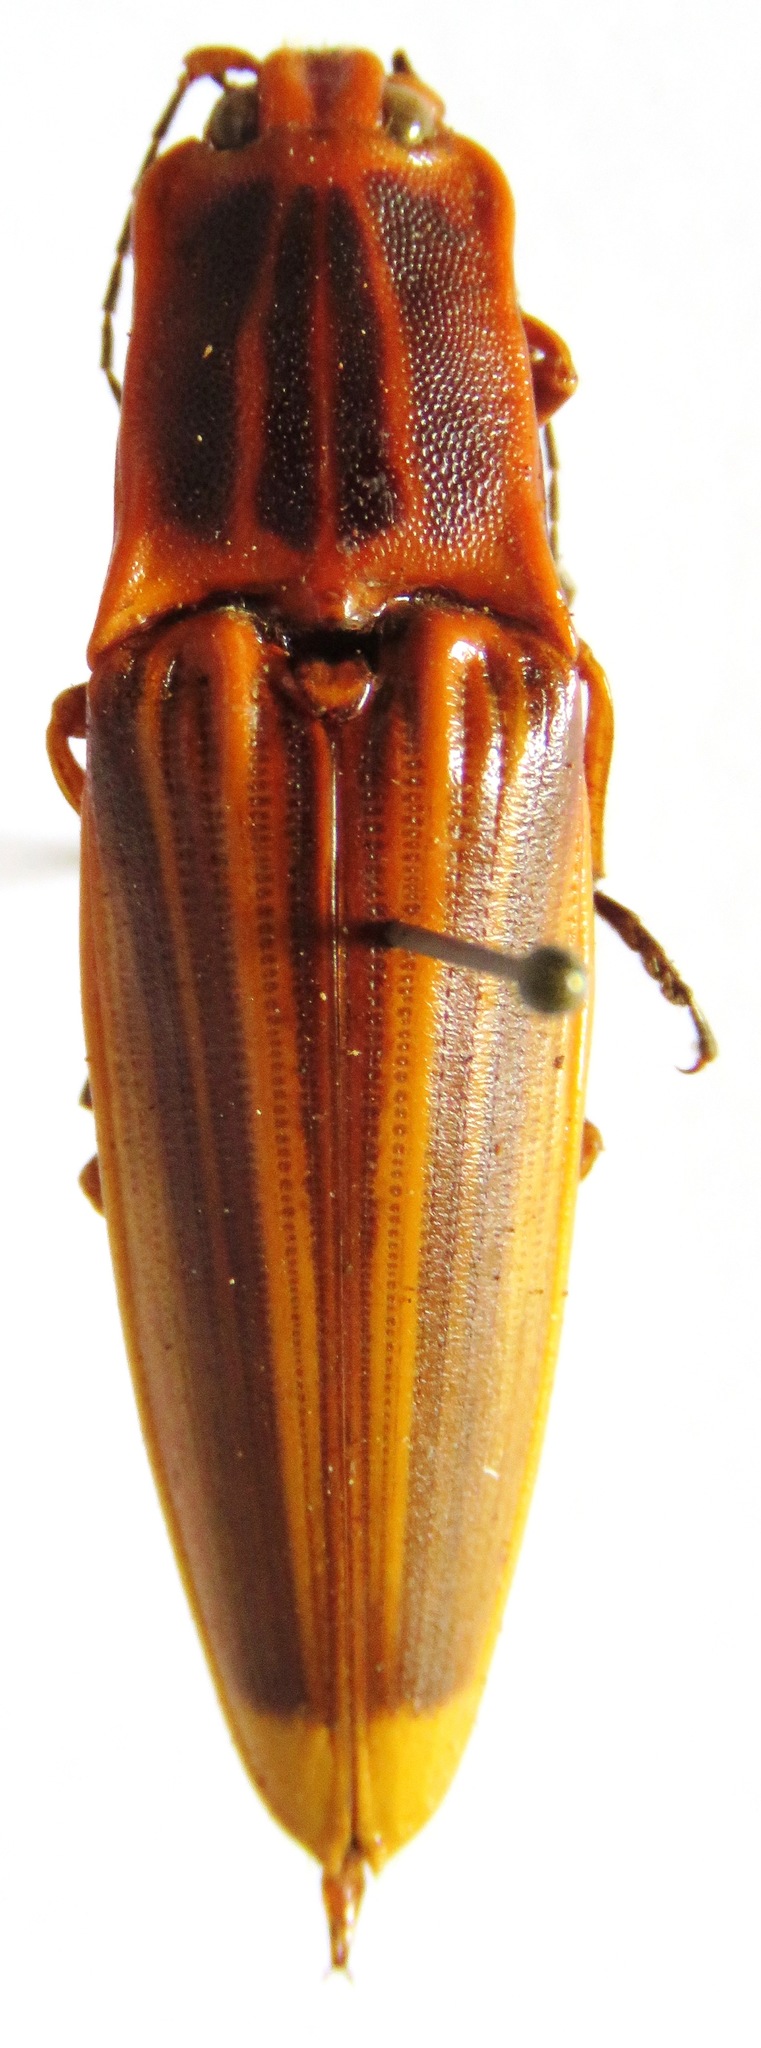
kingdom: Animalia
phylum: Arthropoda
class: Insecta
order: Coleoptera
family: Elateridae
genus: Semiotus
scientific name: Semiotus ligneus
